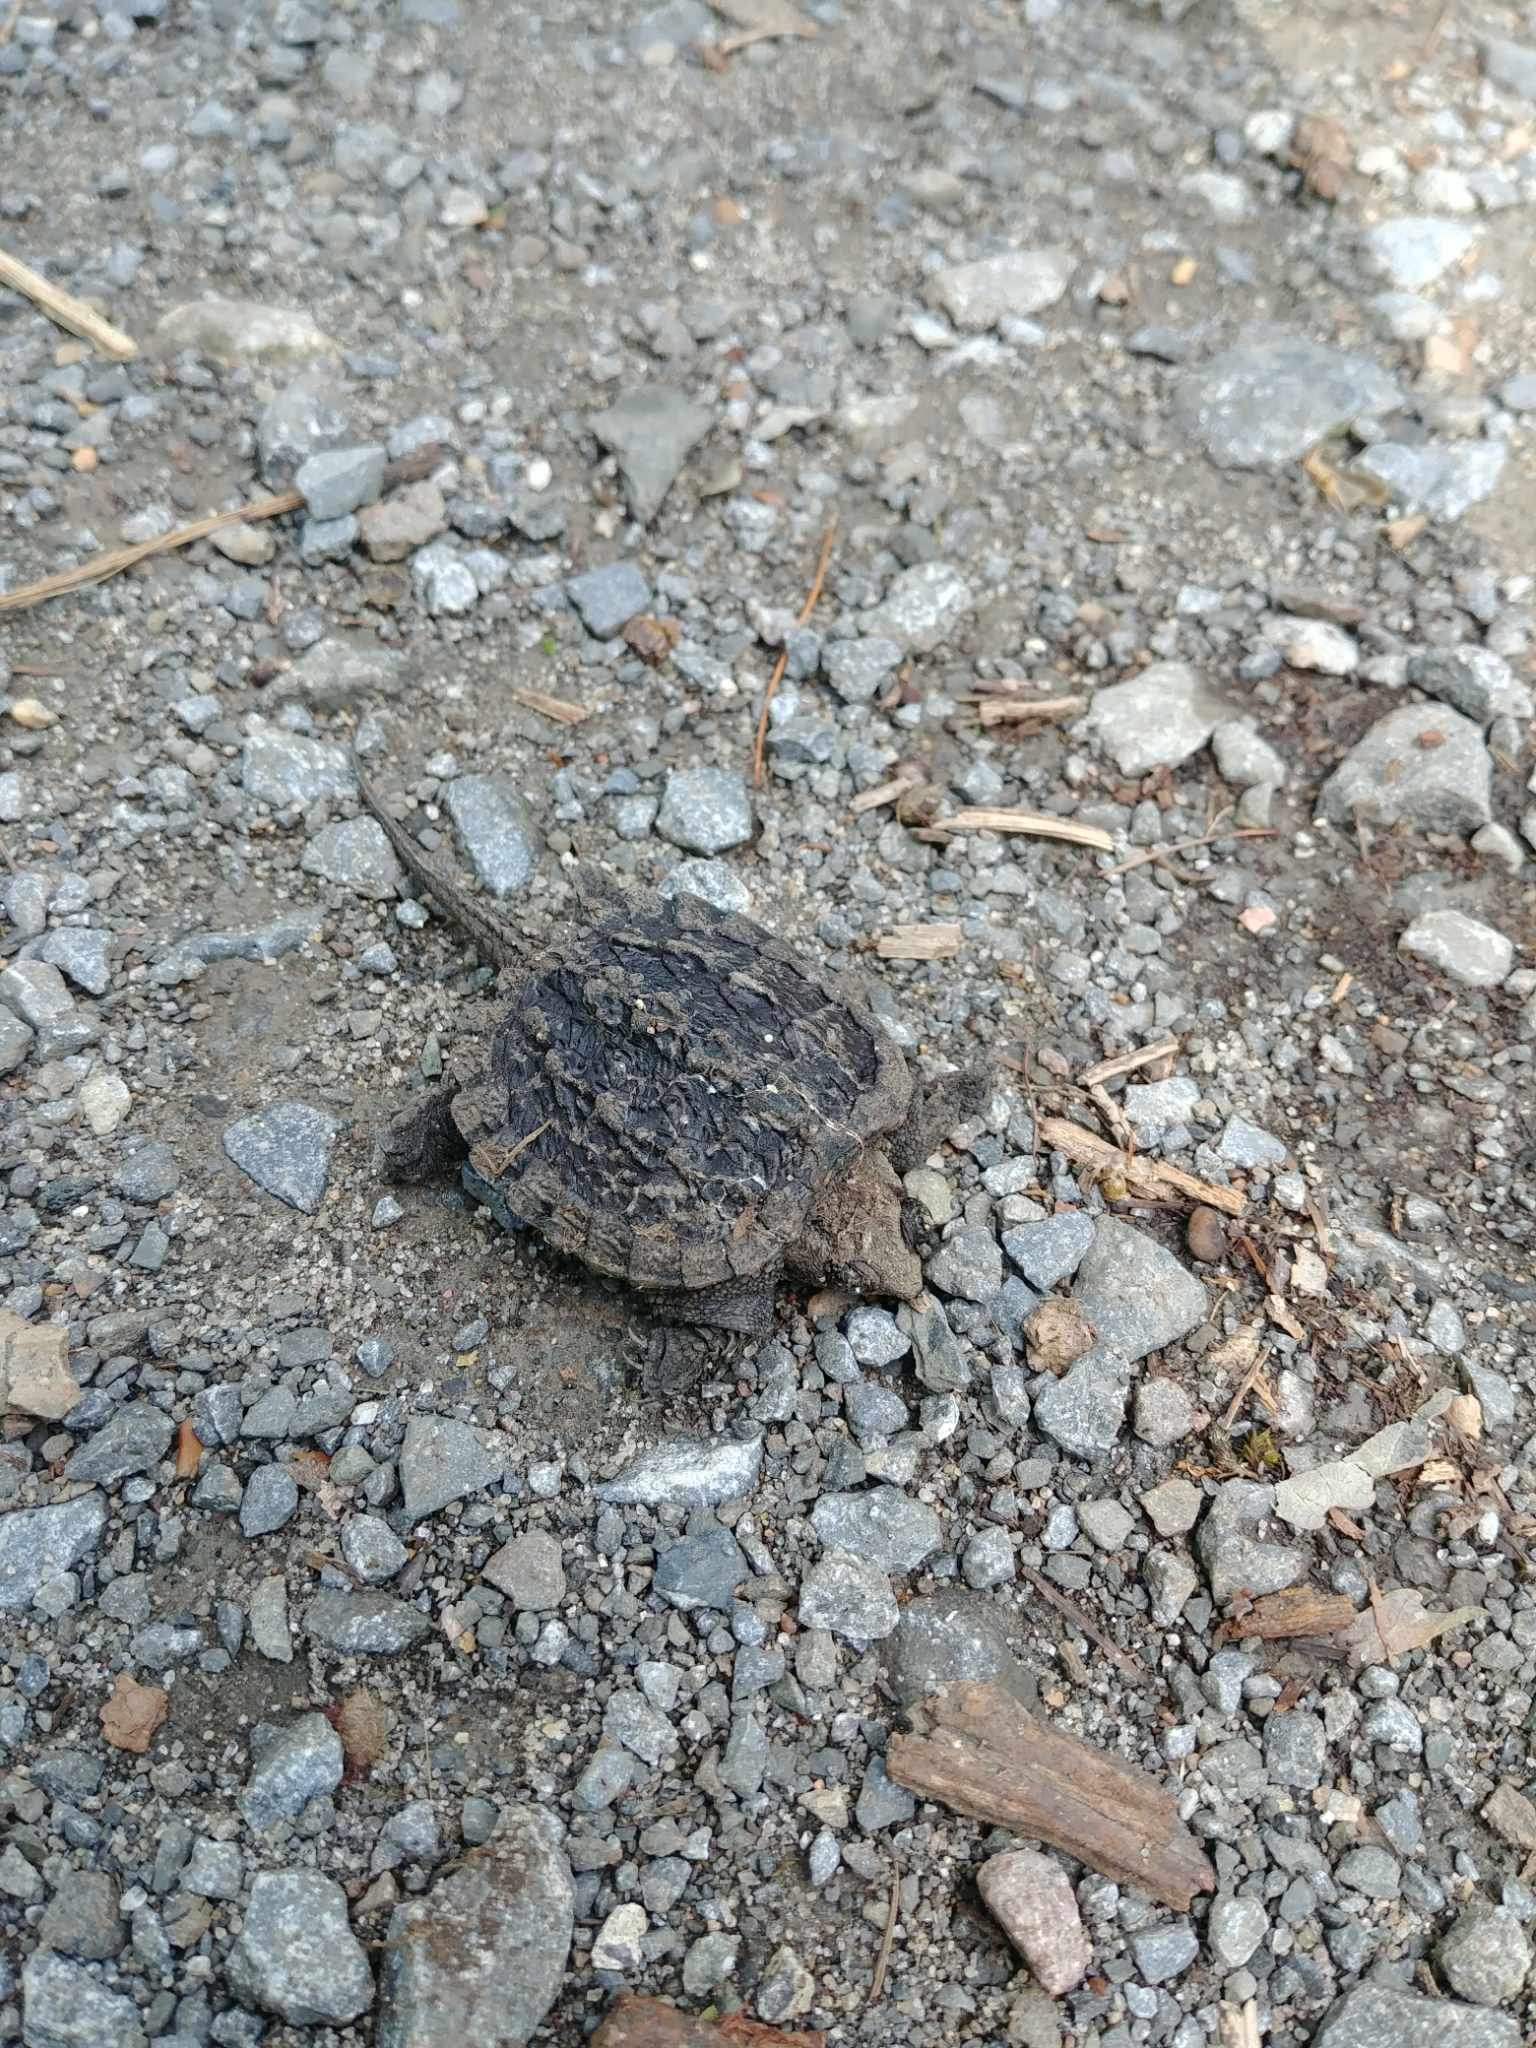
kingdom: Animalia
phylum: Chordata
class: Testudines
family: Chelydridae
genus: Chelydra
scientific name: Chelydra serpentina
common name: Common snapping turtle
